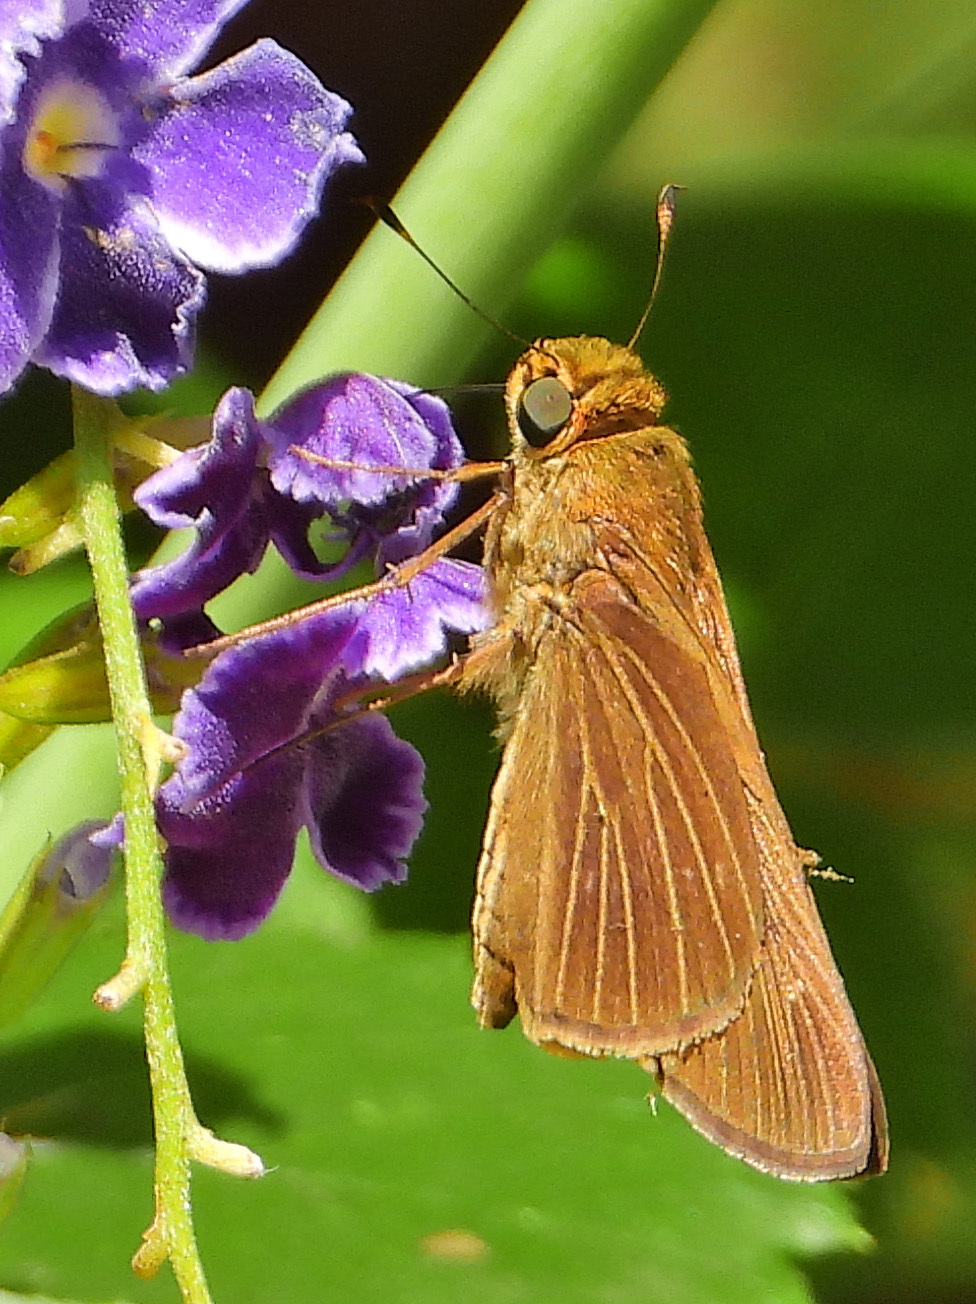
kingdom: Animalia
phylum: Arthropoda
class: Insecta
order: Lepidoptera
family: Hesperiidae
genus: Panoquina
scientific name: Panoquina ocola
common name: Ocola skipper
